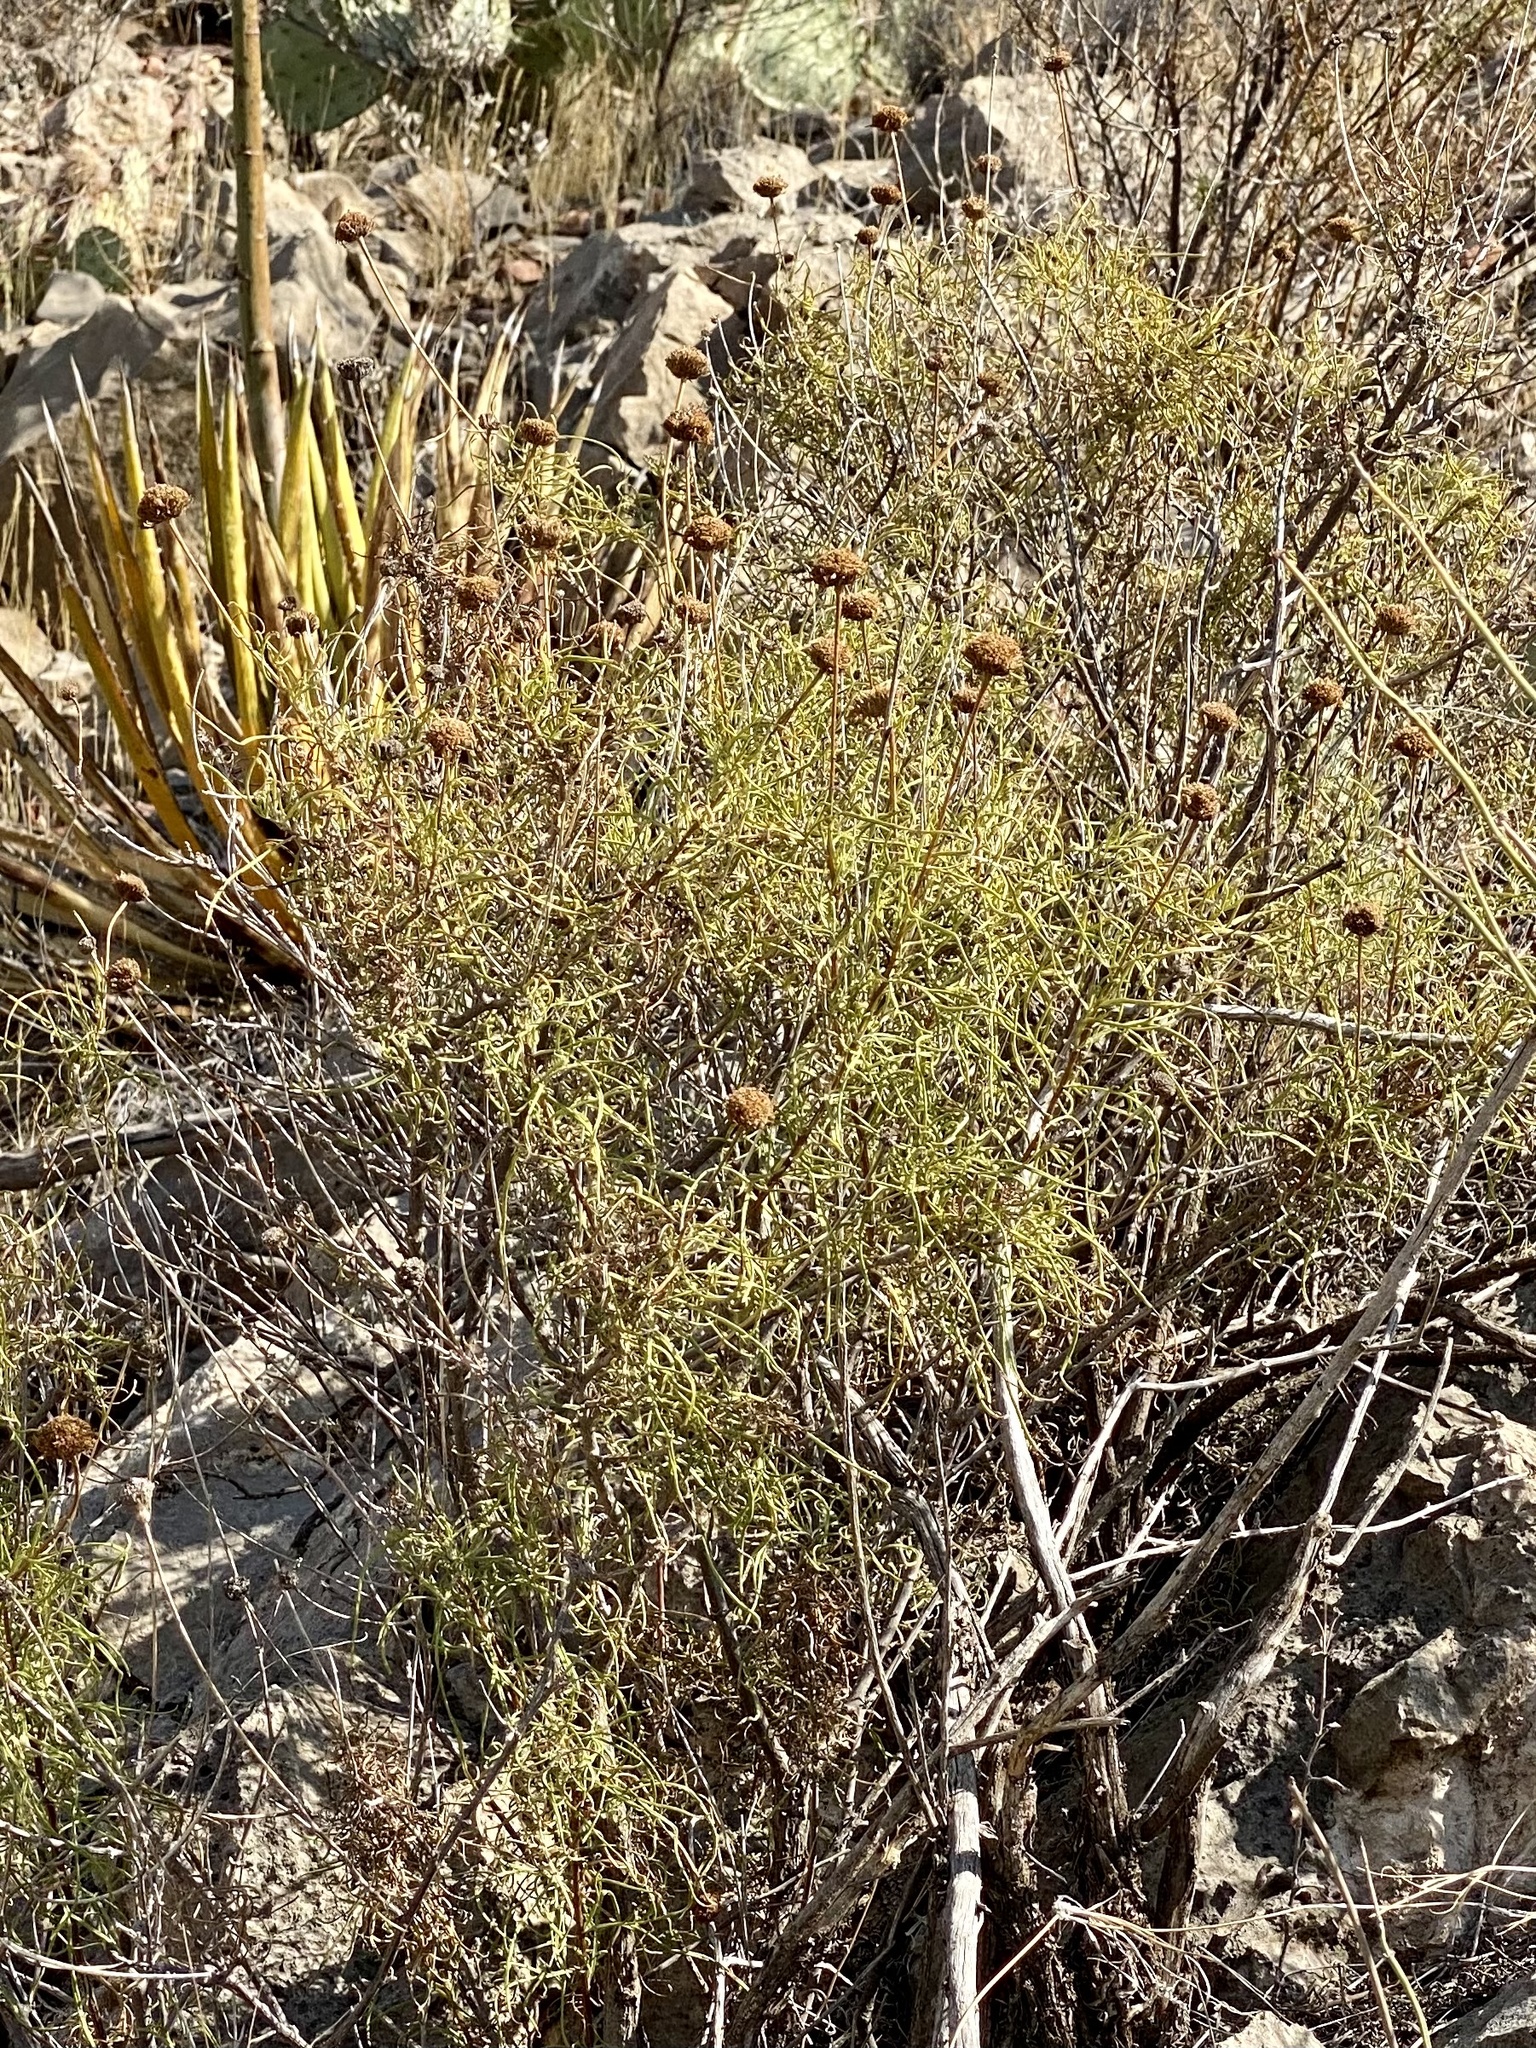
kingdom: Plantae
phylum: Tracheophyta
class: Magnoliopsida
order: Asterales
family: Asteraceae
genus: Sidneya
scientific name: Sidneya tenuifolia
